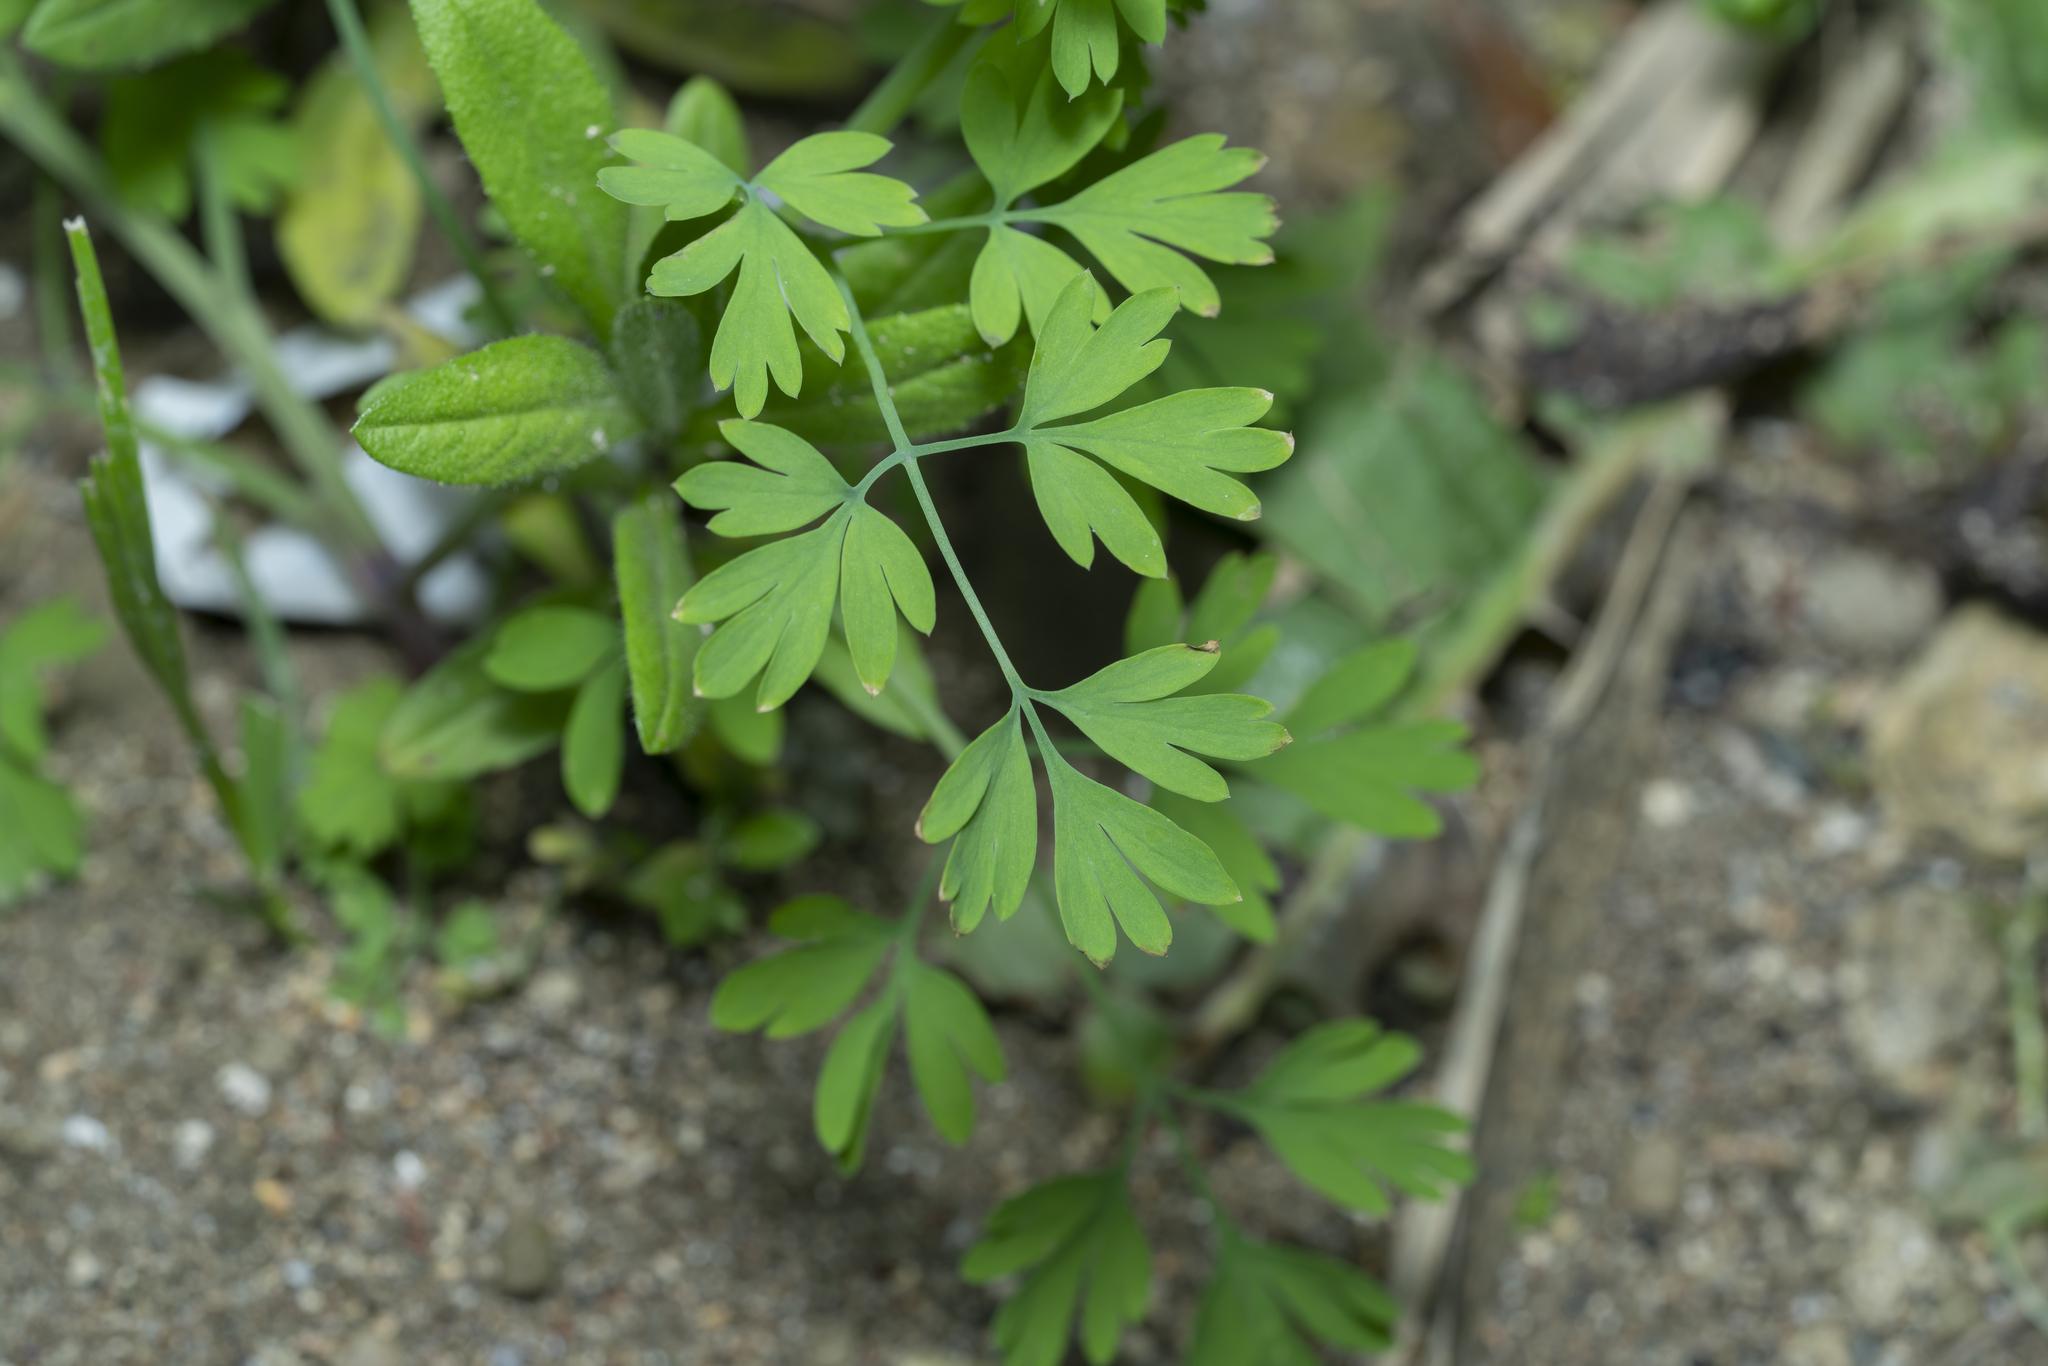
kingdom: Plantae
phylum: Tracheophyta
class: Magnoliopsida
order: Ranunculales
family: Papaveraceae
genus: Fumaria
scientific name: Fumaria judaica
